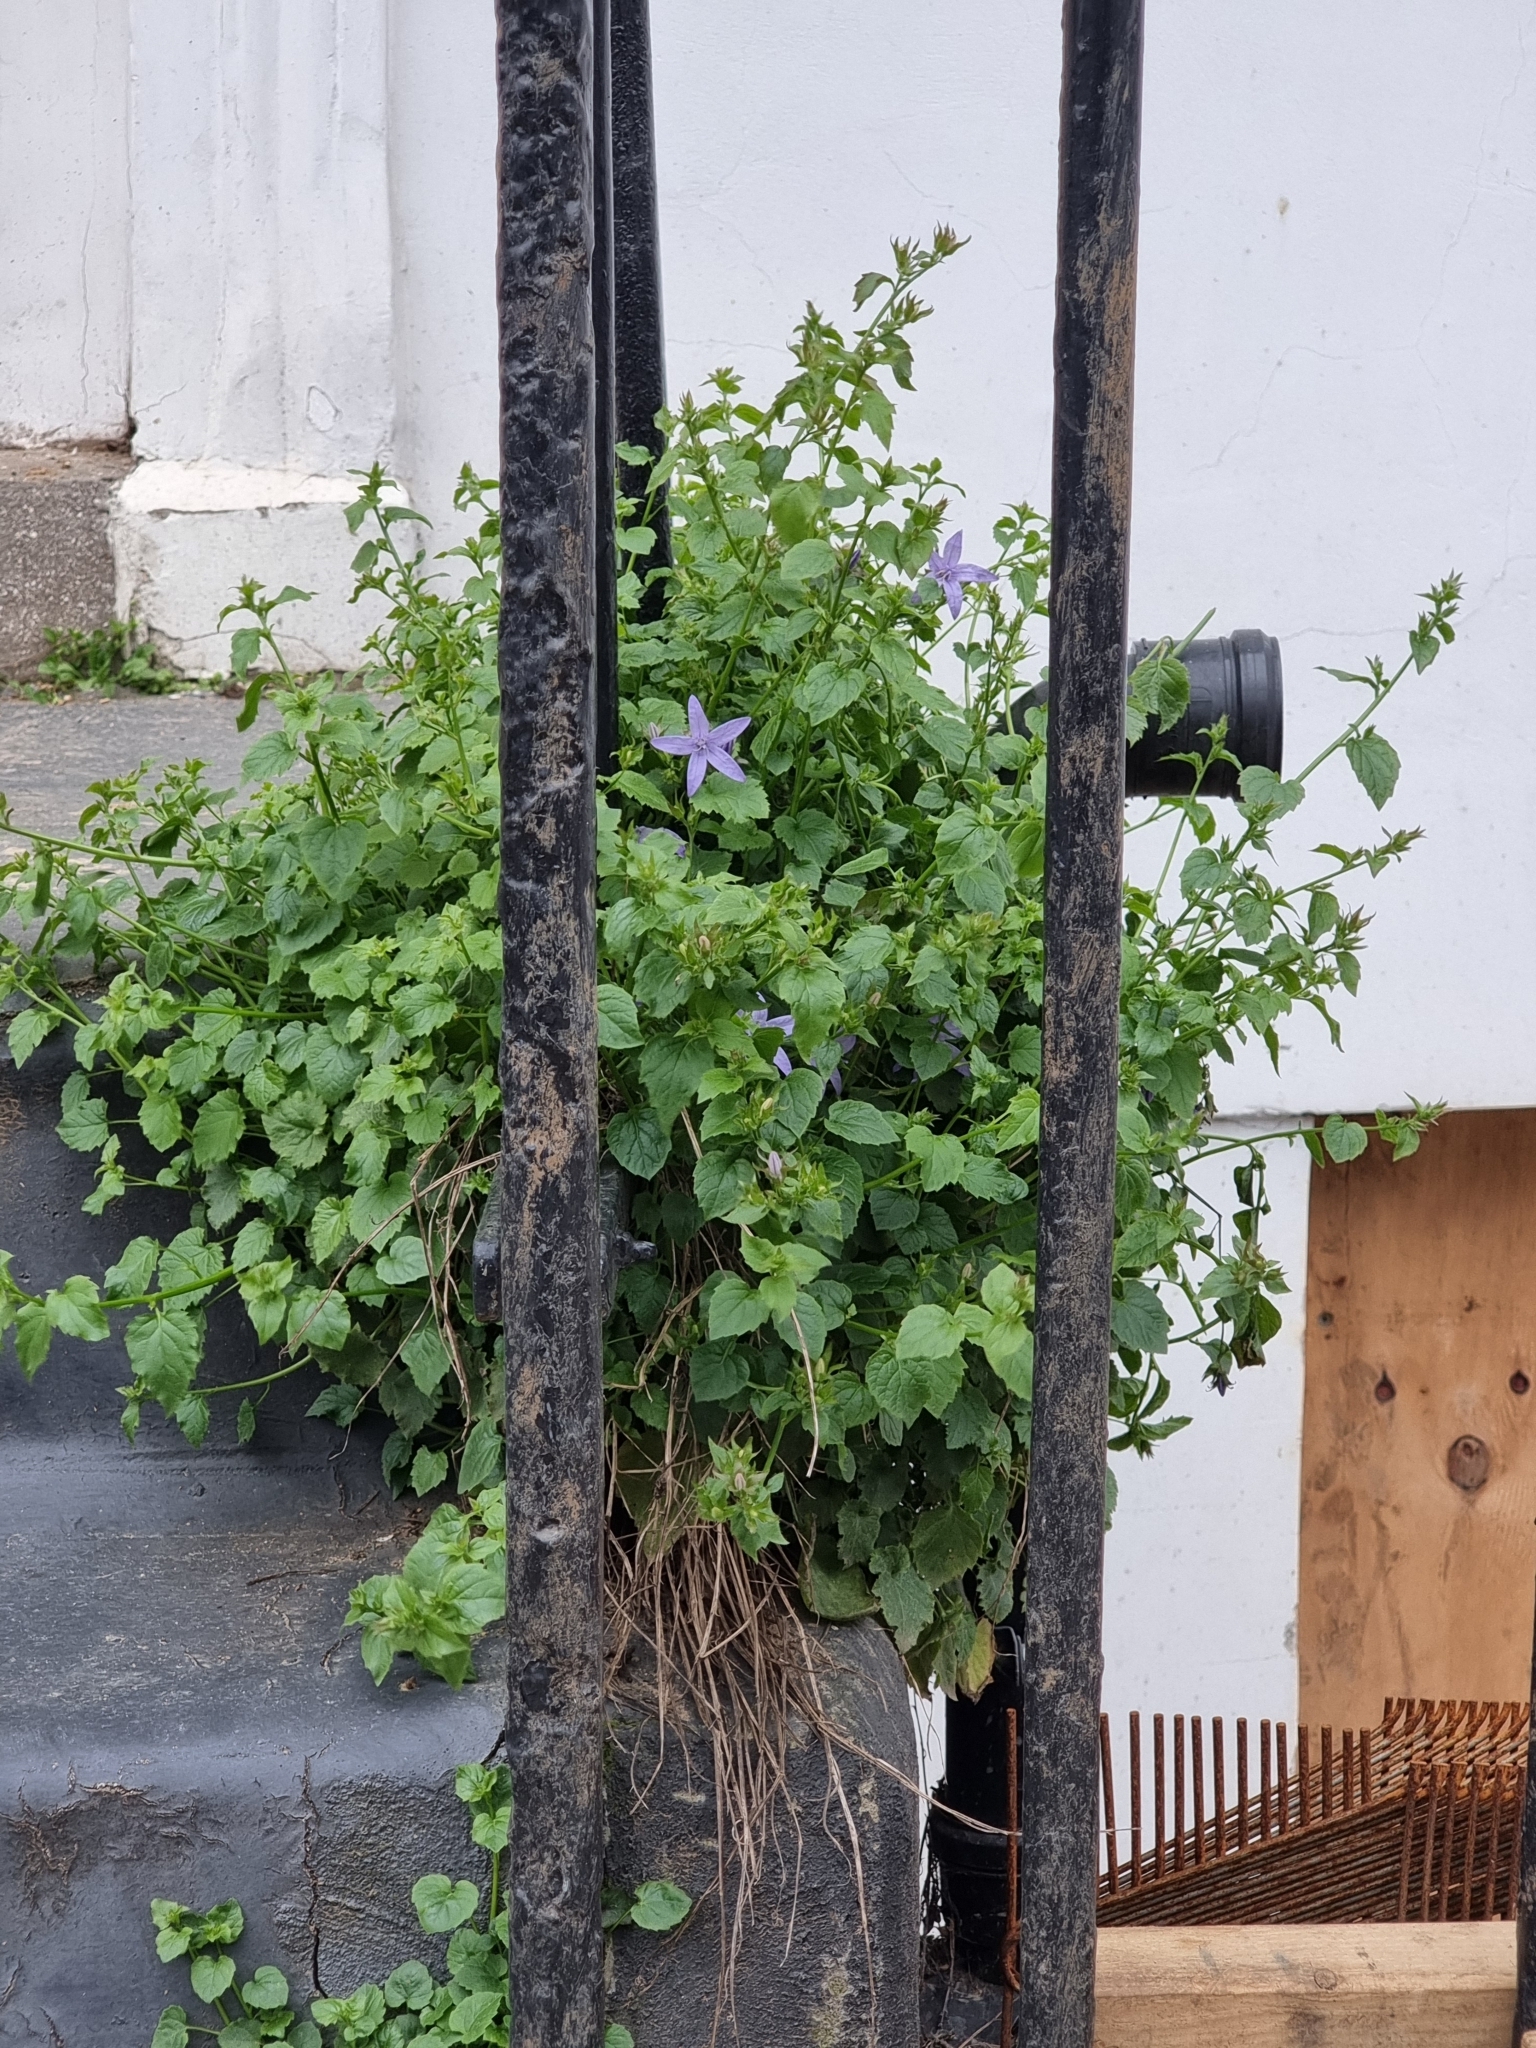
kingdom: Plantae
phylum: Tracheophyta
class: Magnoliopsida
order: Asterales
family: Campanulaceae
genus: Campanula
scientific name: Campanula poscharskyana
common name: Trailing bellflower
